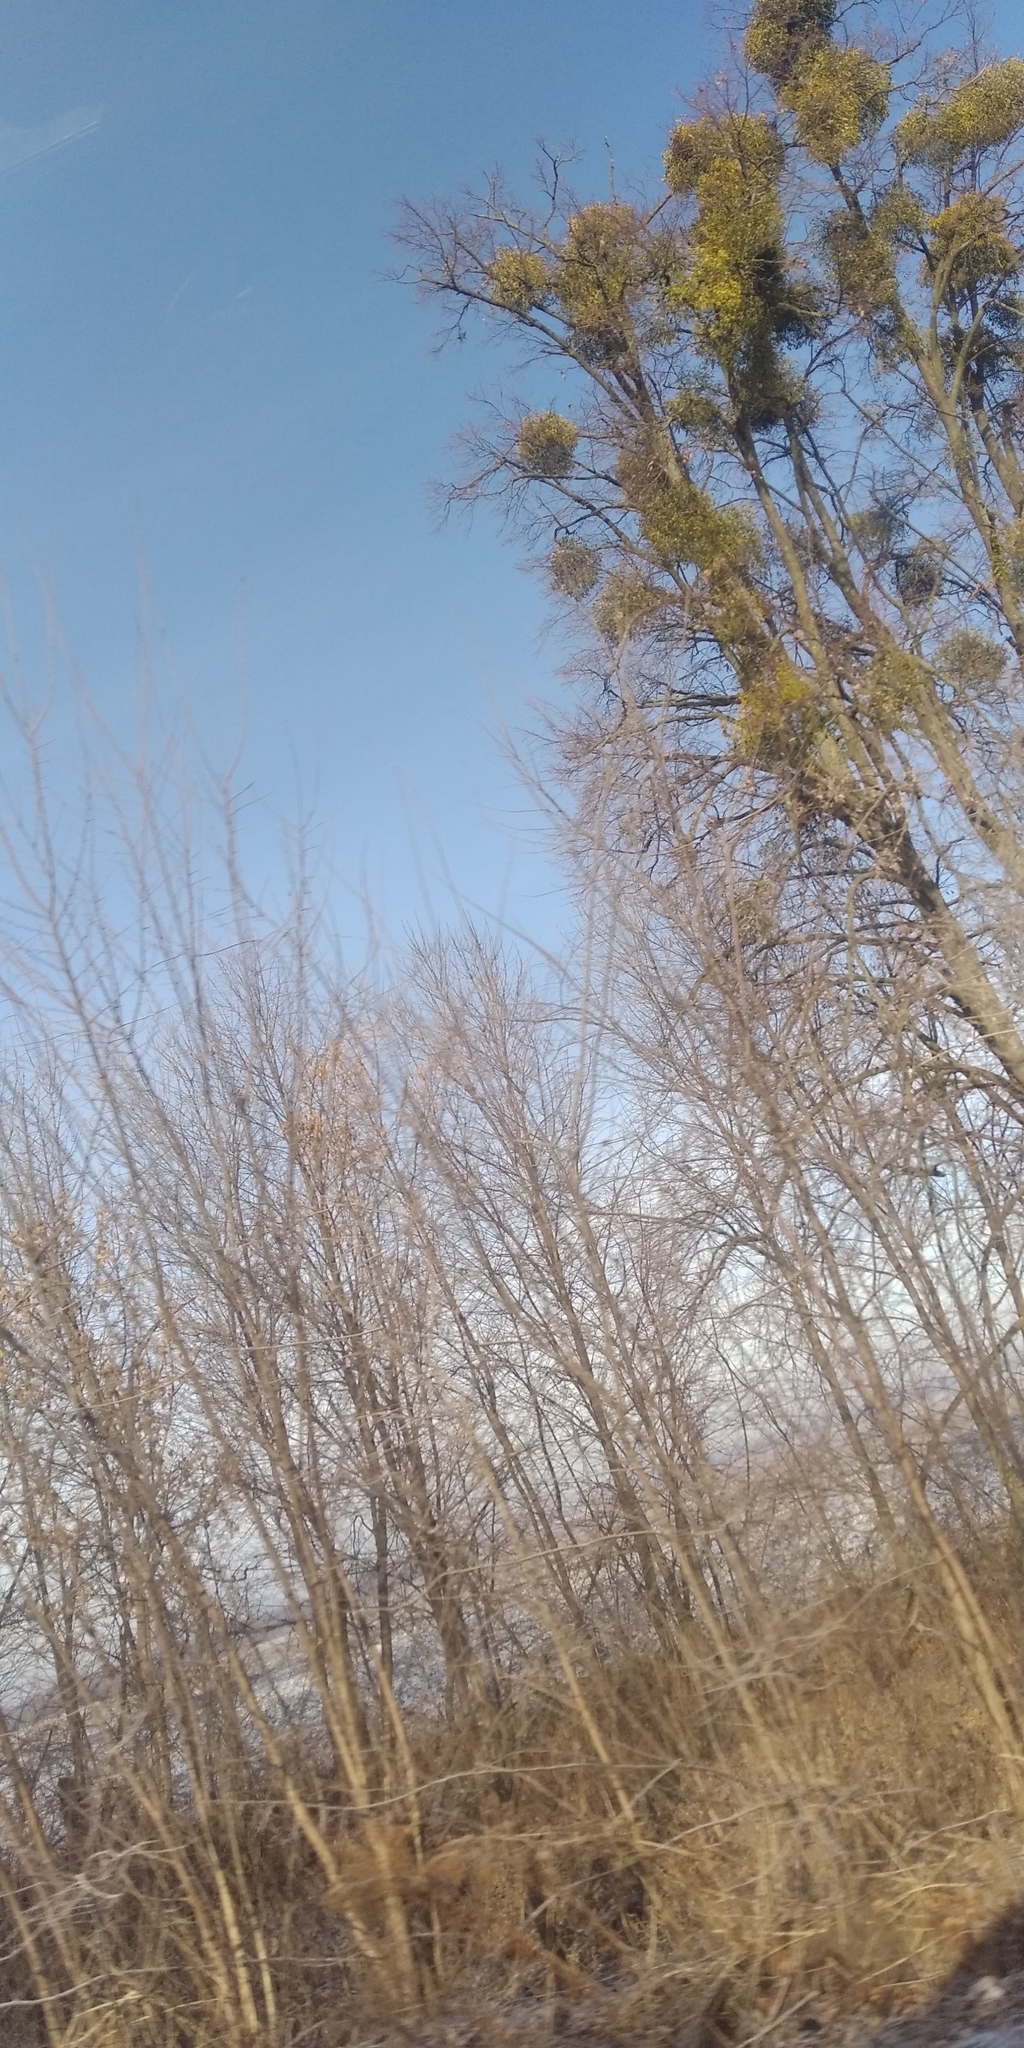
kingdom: Plantae
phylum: Tracheophyta
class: Magnoliopsida
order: Santalales
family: Viscaceae
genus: Viscum
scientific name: Viscum album
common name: Mistletoe
